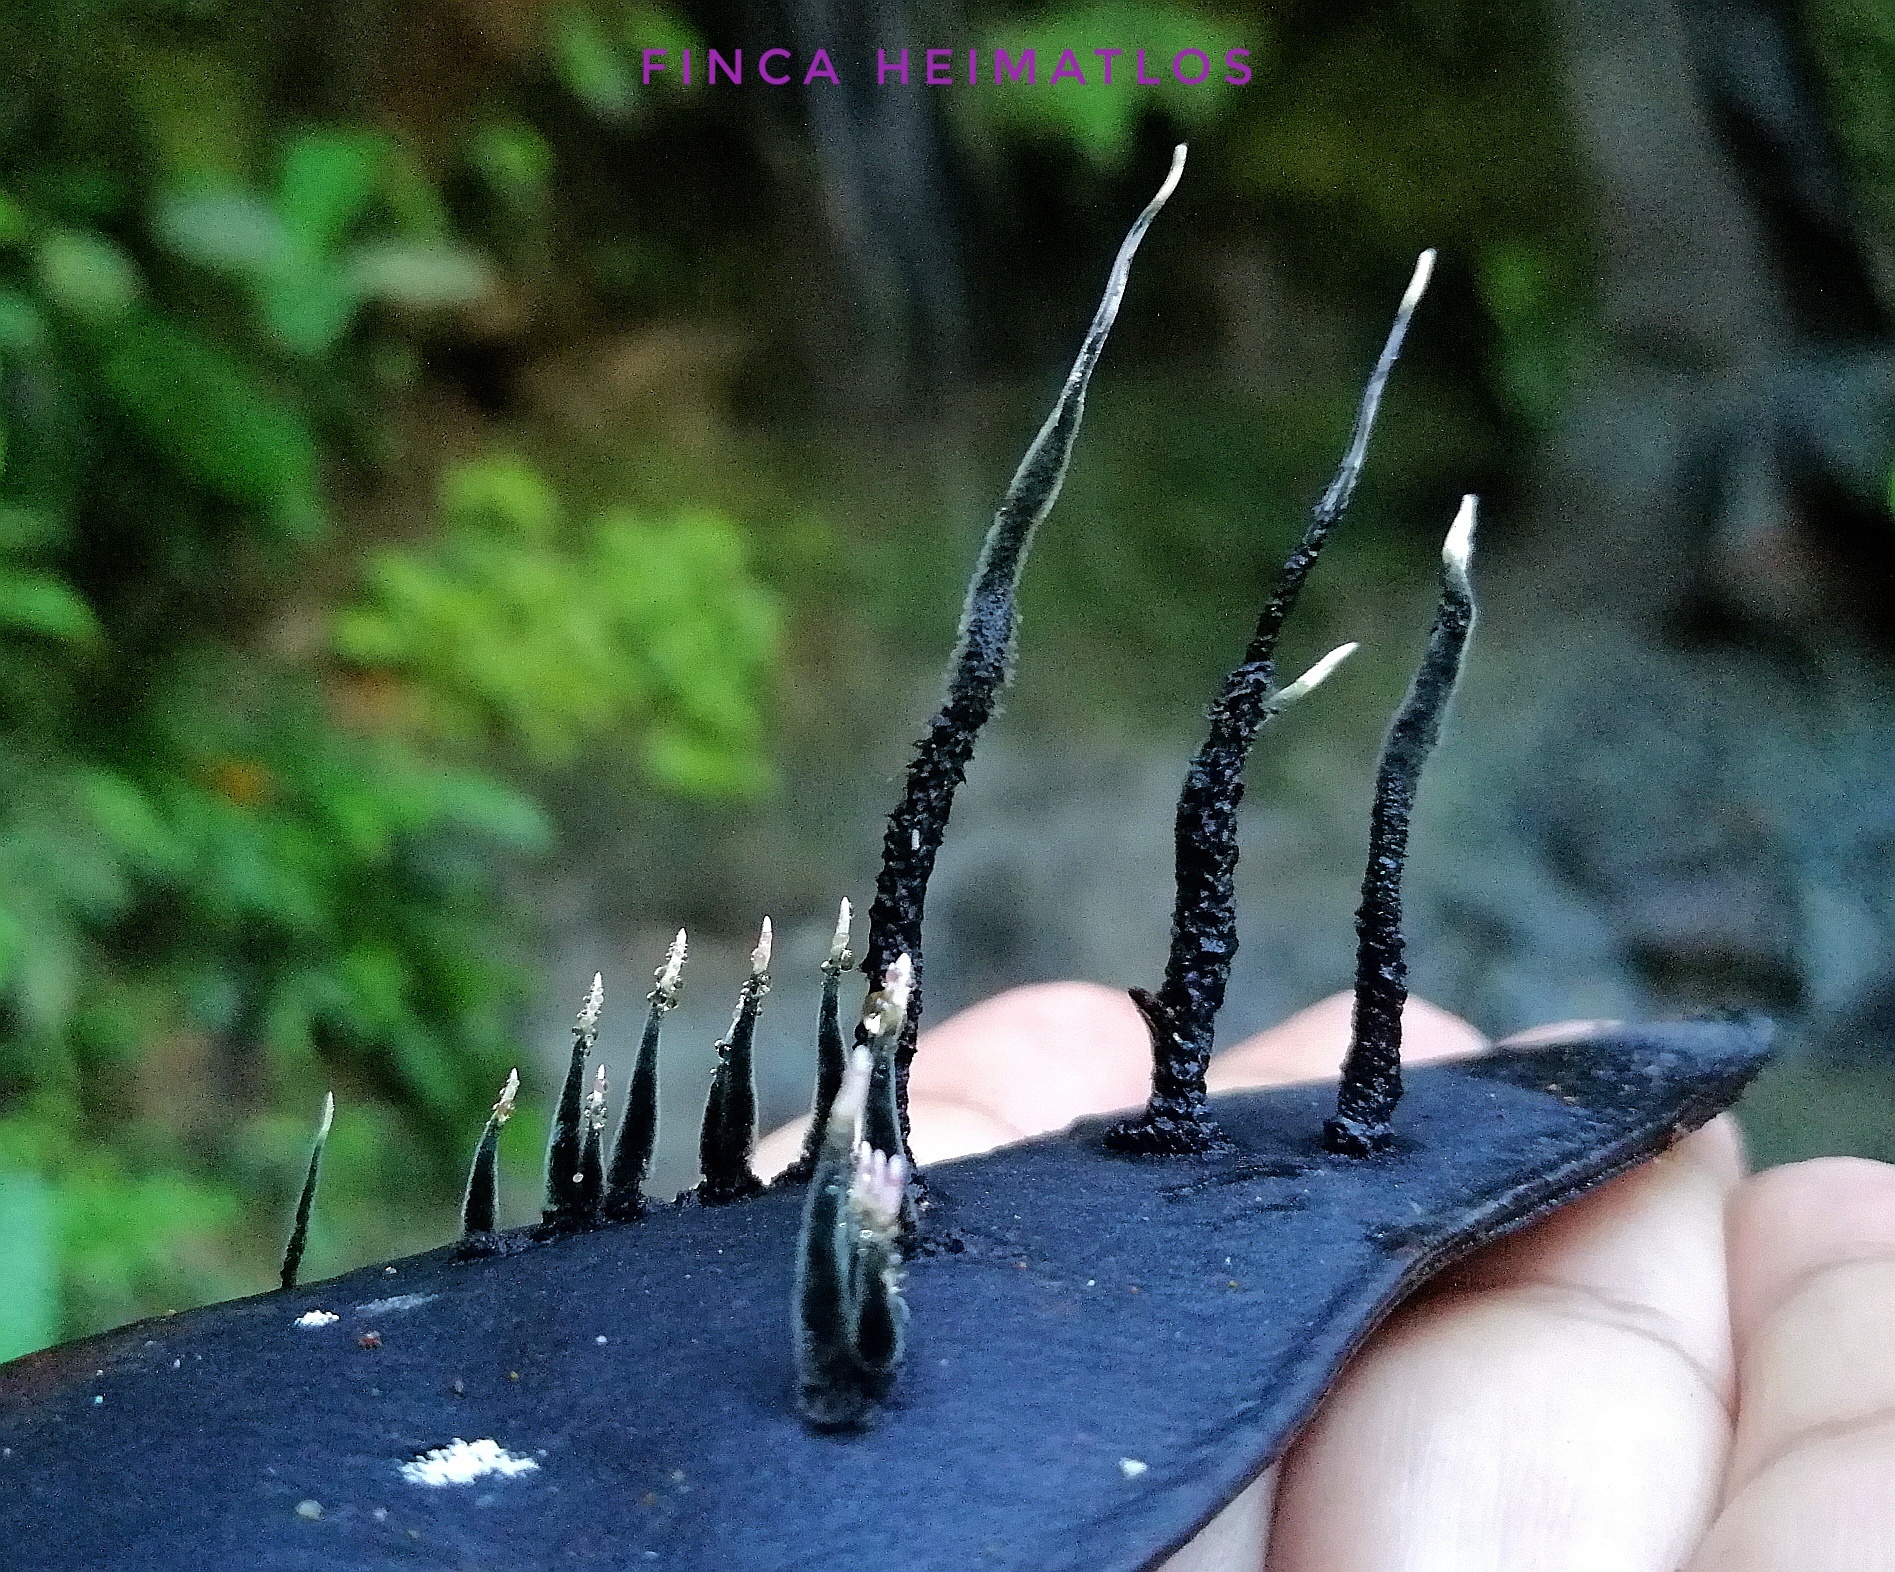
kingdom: Fungi
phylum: Ascomycota
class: Sordariomycetes
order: Xylariales
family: Xylariaceae
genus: Xylosphaera
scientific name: Xylosphaera ianthinovelutina
